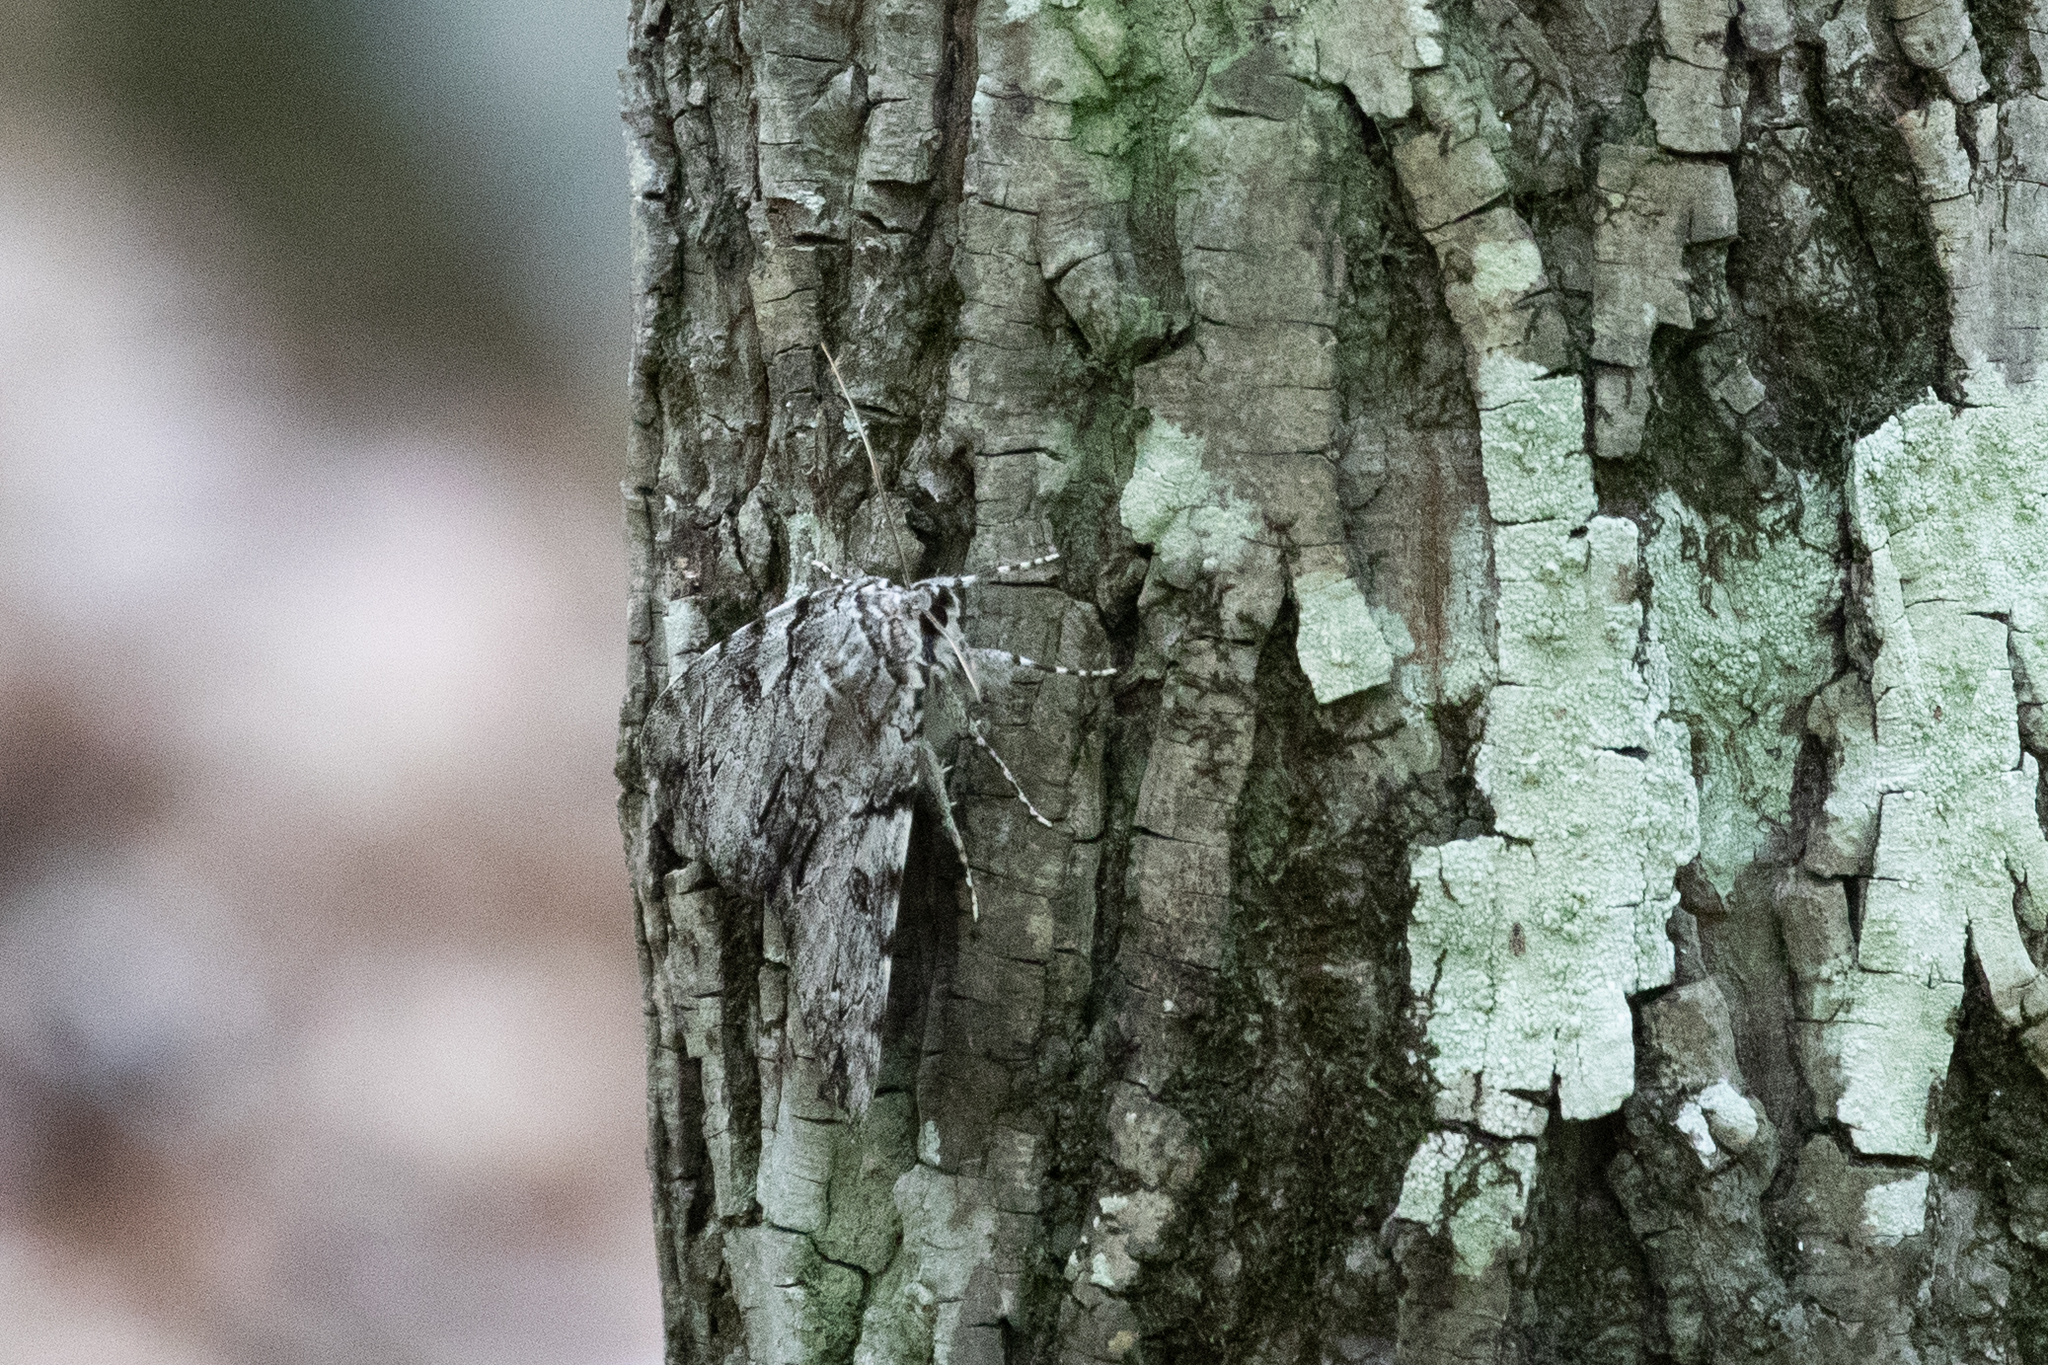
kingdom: Animalia
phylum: Arthropoda
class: Insecta
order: Lepidoptera
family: Erebidae
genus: Catocala
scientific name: Catocala dejecta
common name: Dejected underwing
